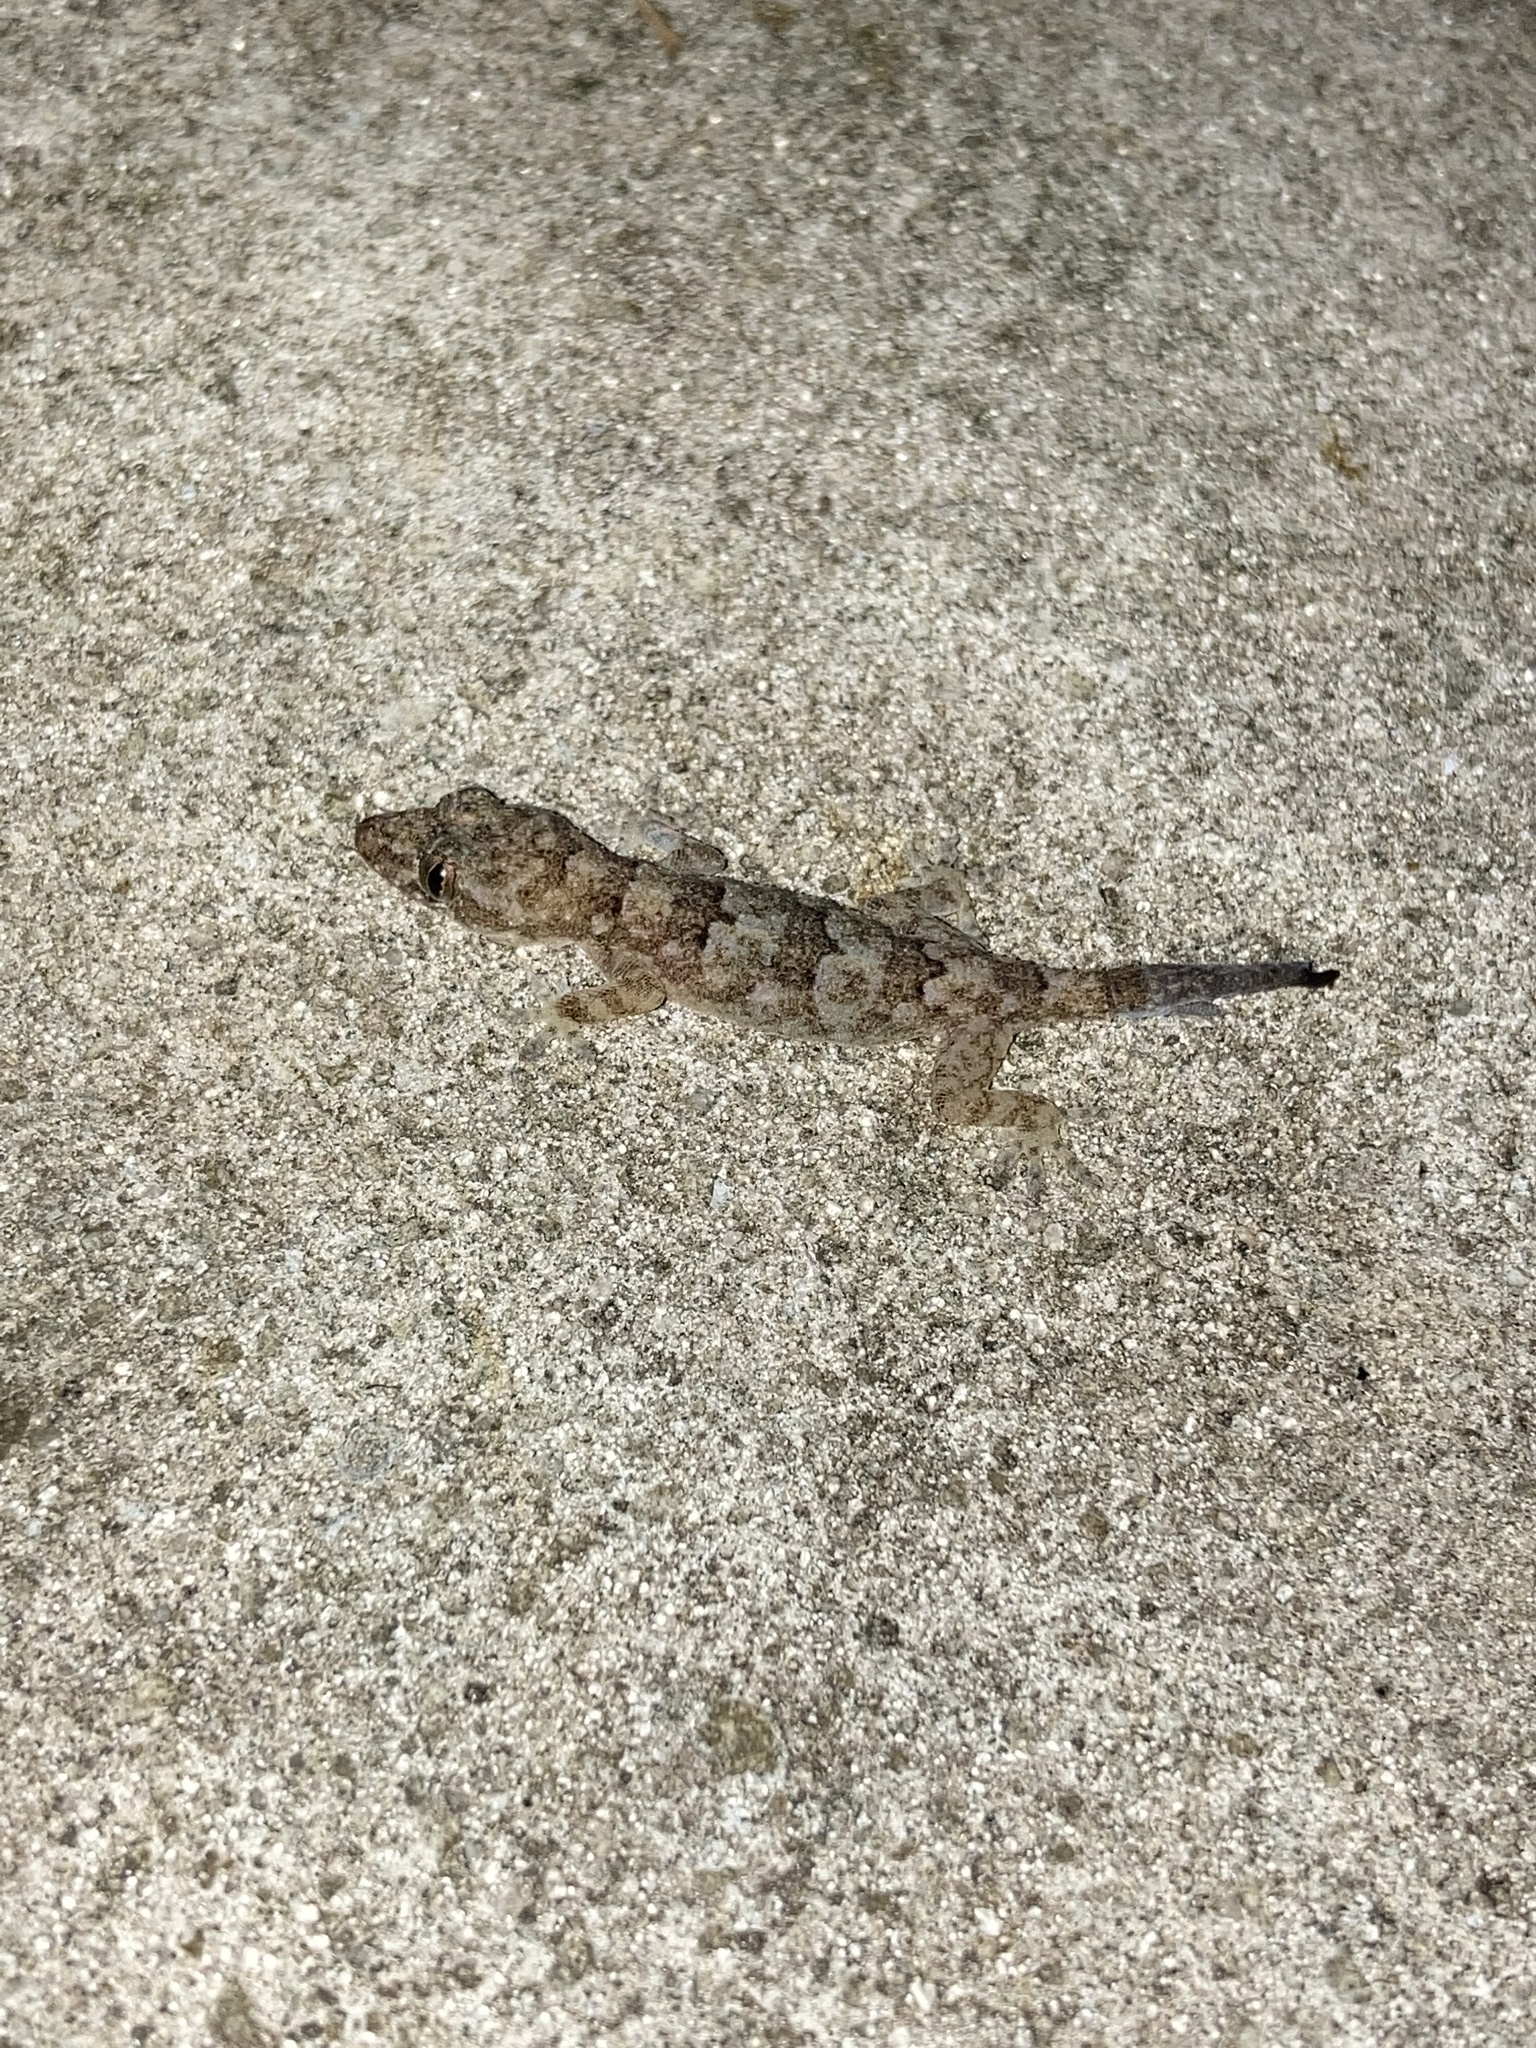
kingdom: Animalia
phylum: Chordata
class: Squamata
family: Gekkonidae
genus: Hemidactylus
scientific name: Hemidactylus mabouia
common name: House gecko
